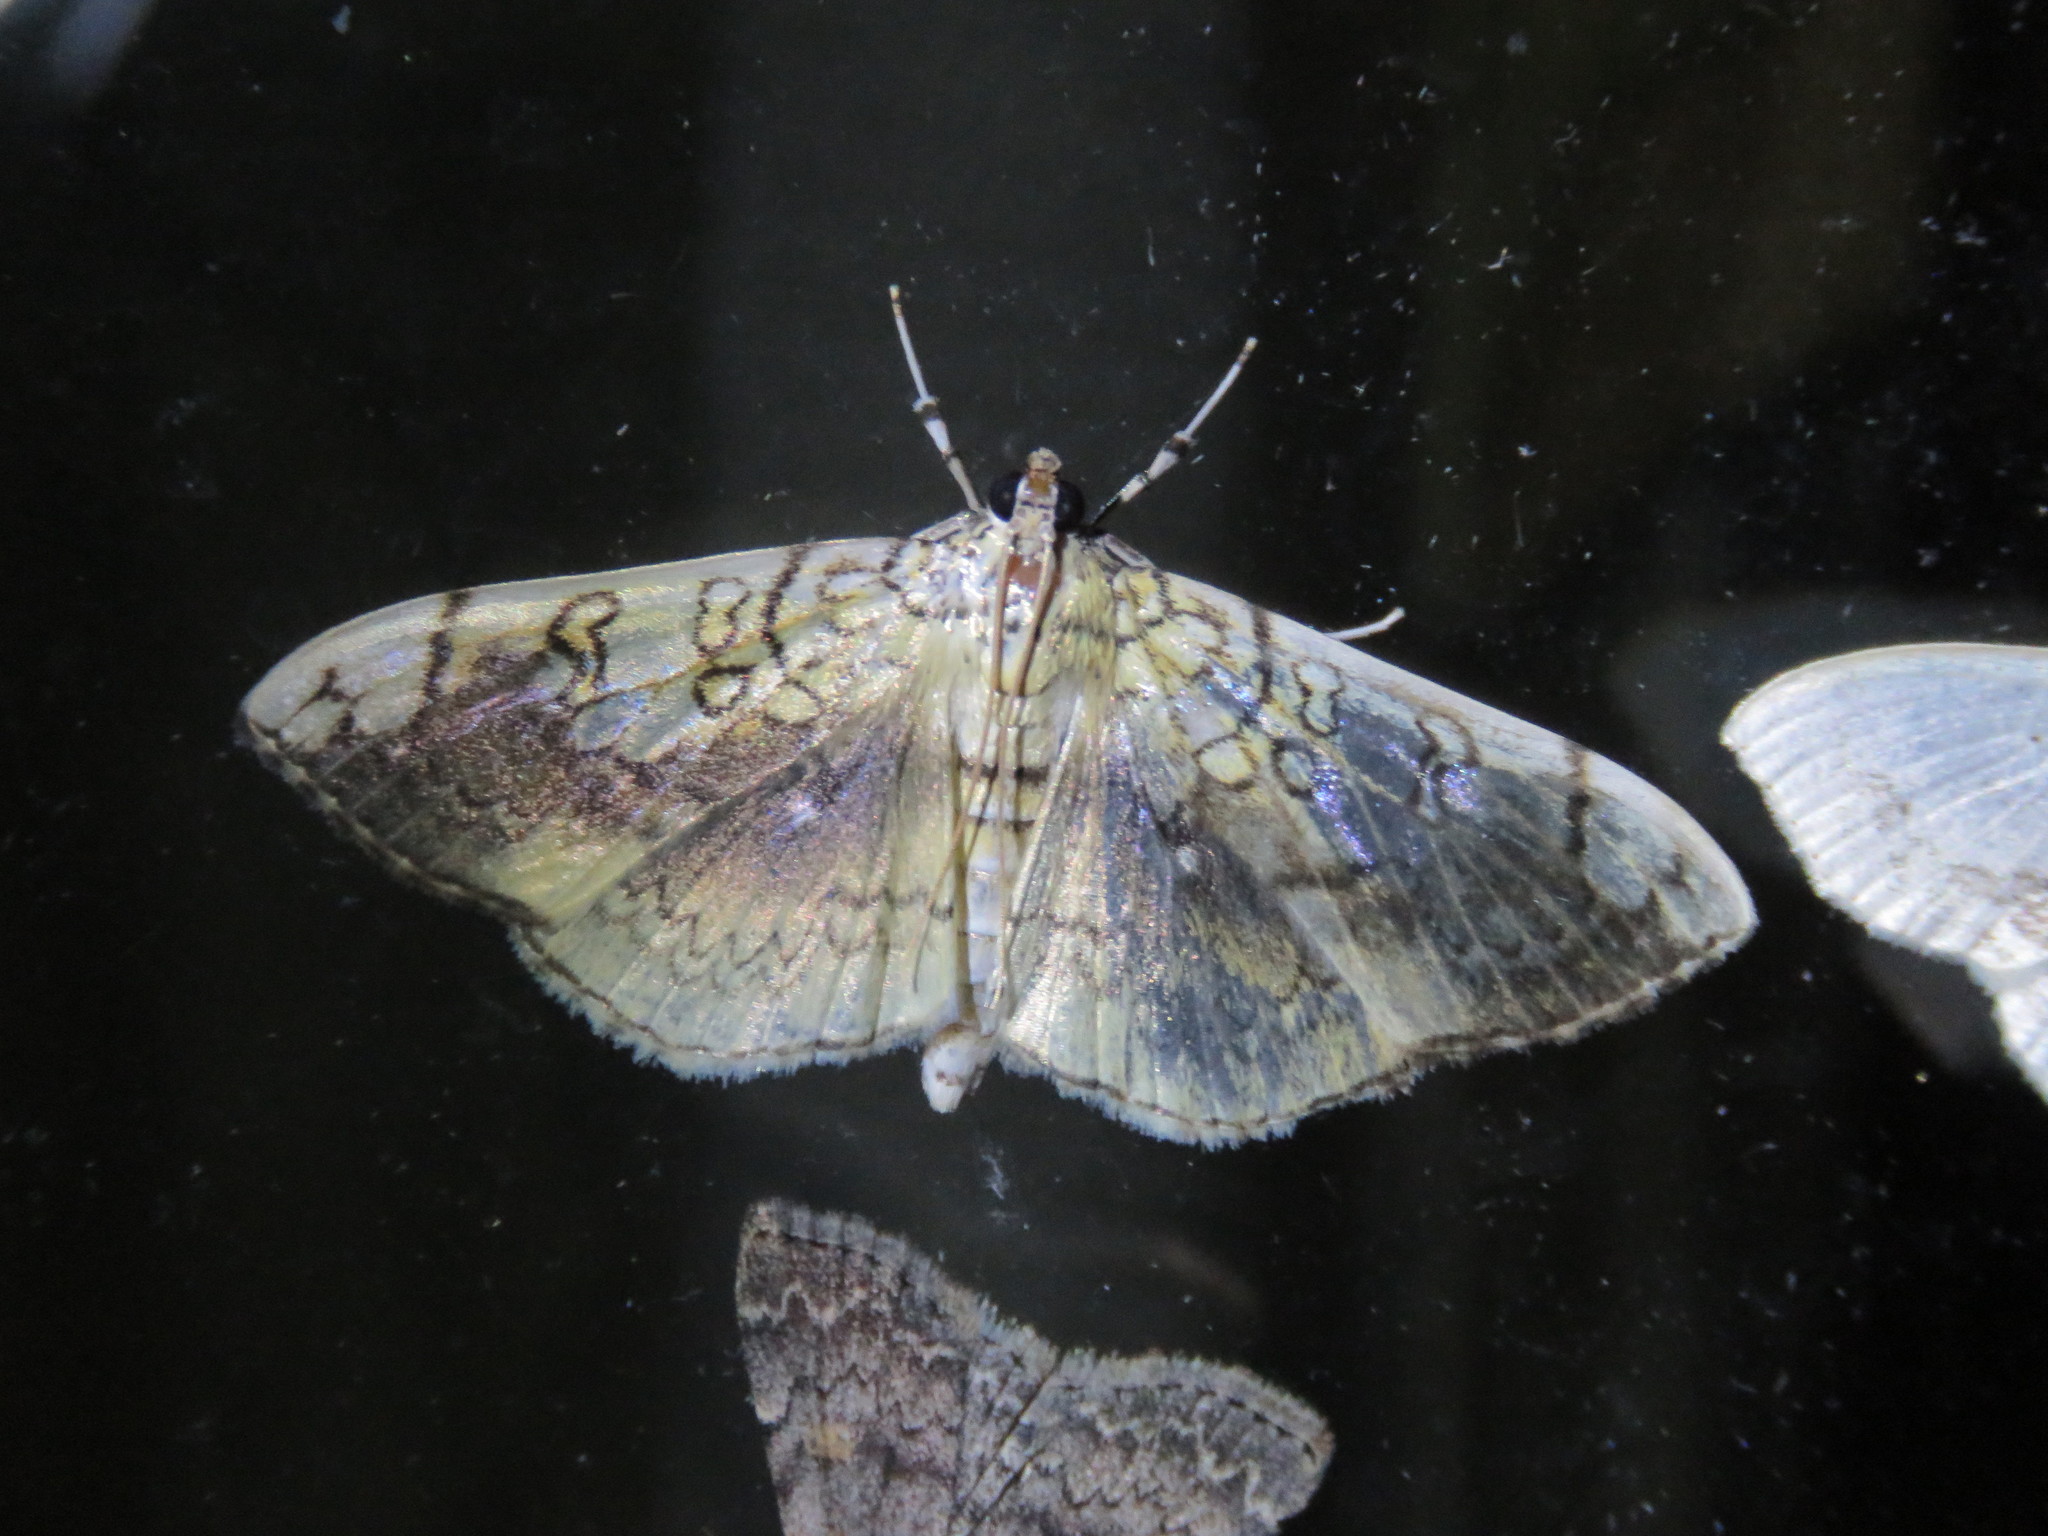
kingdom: Animalia
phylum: Arthropoda
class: Insecta
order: Lepidoptera
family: Crambidae
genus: Pantographa
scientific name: Pantographa limata
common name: Basswood leafroller moth
